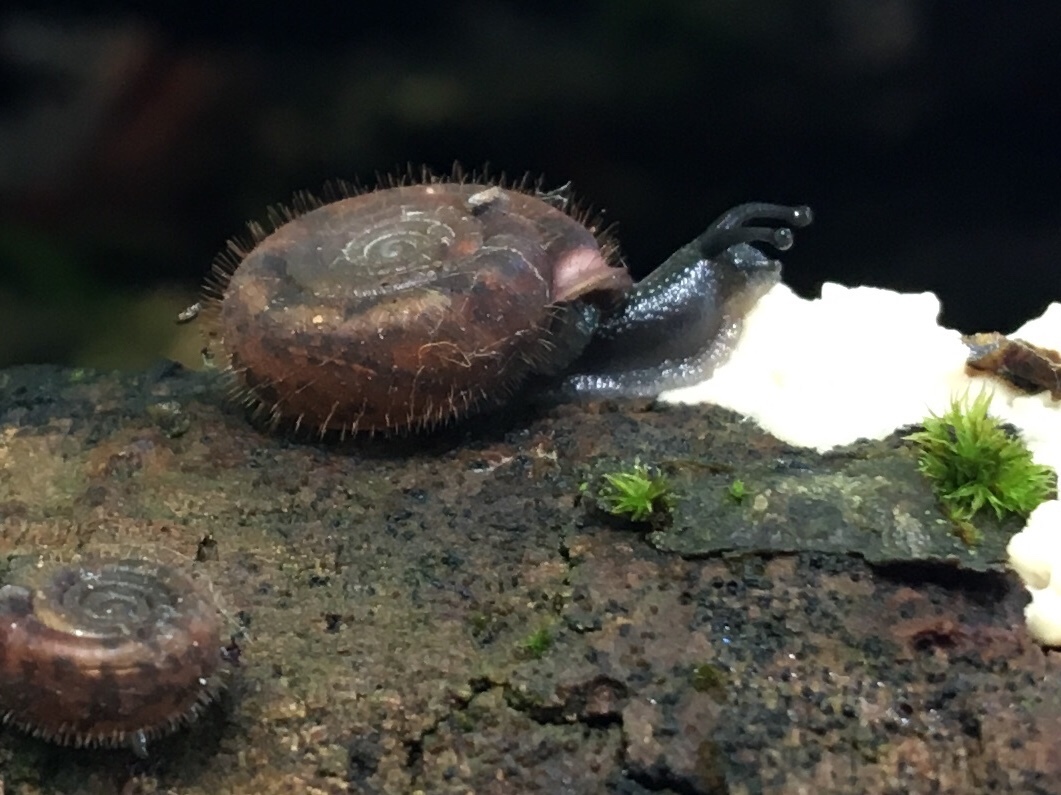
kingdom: Animalia
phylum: Mollusca
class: Gastropoda
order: Stylommatophora
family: Helicodontidae
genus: Helicodonta
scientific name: Helicodonta obvoluta
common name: Cheese snail
